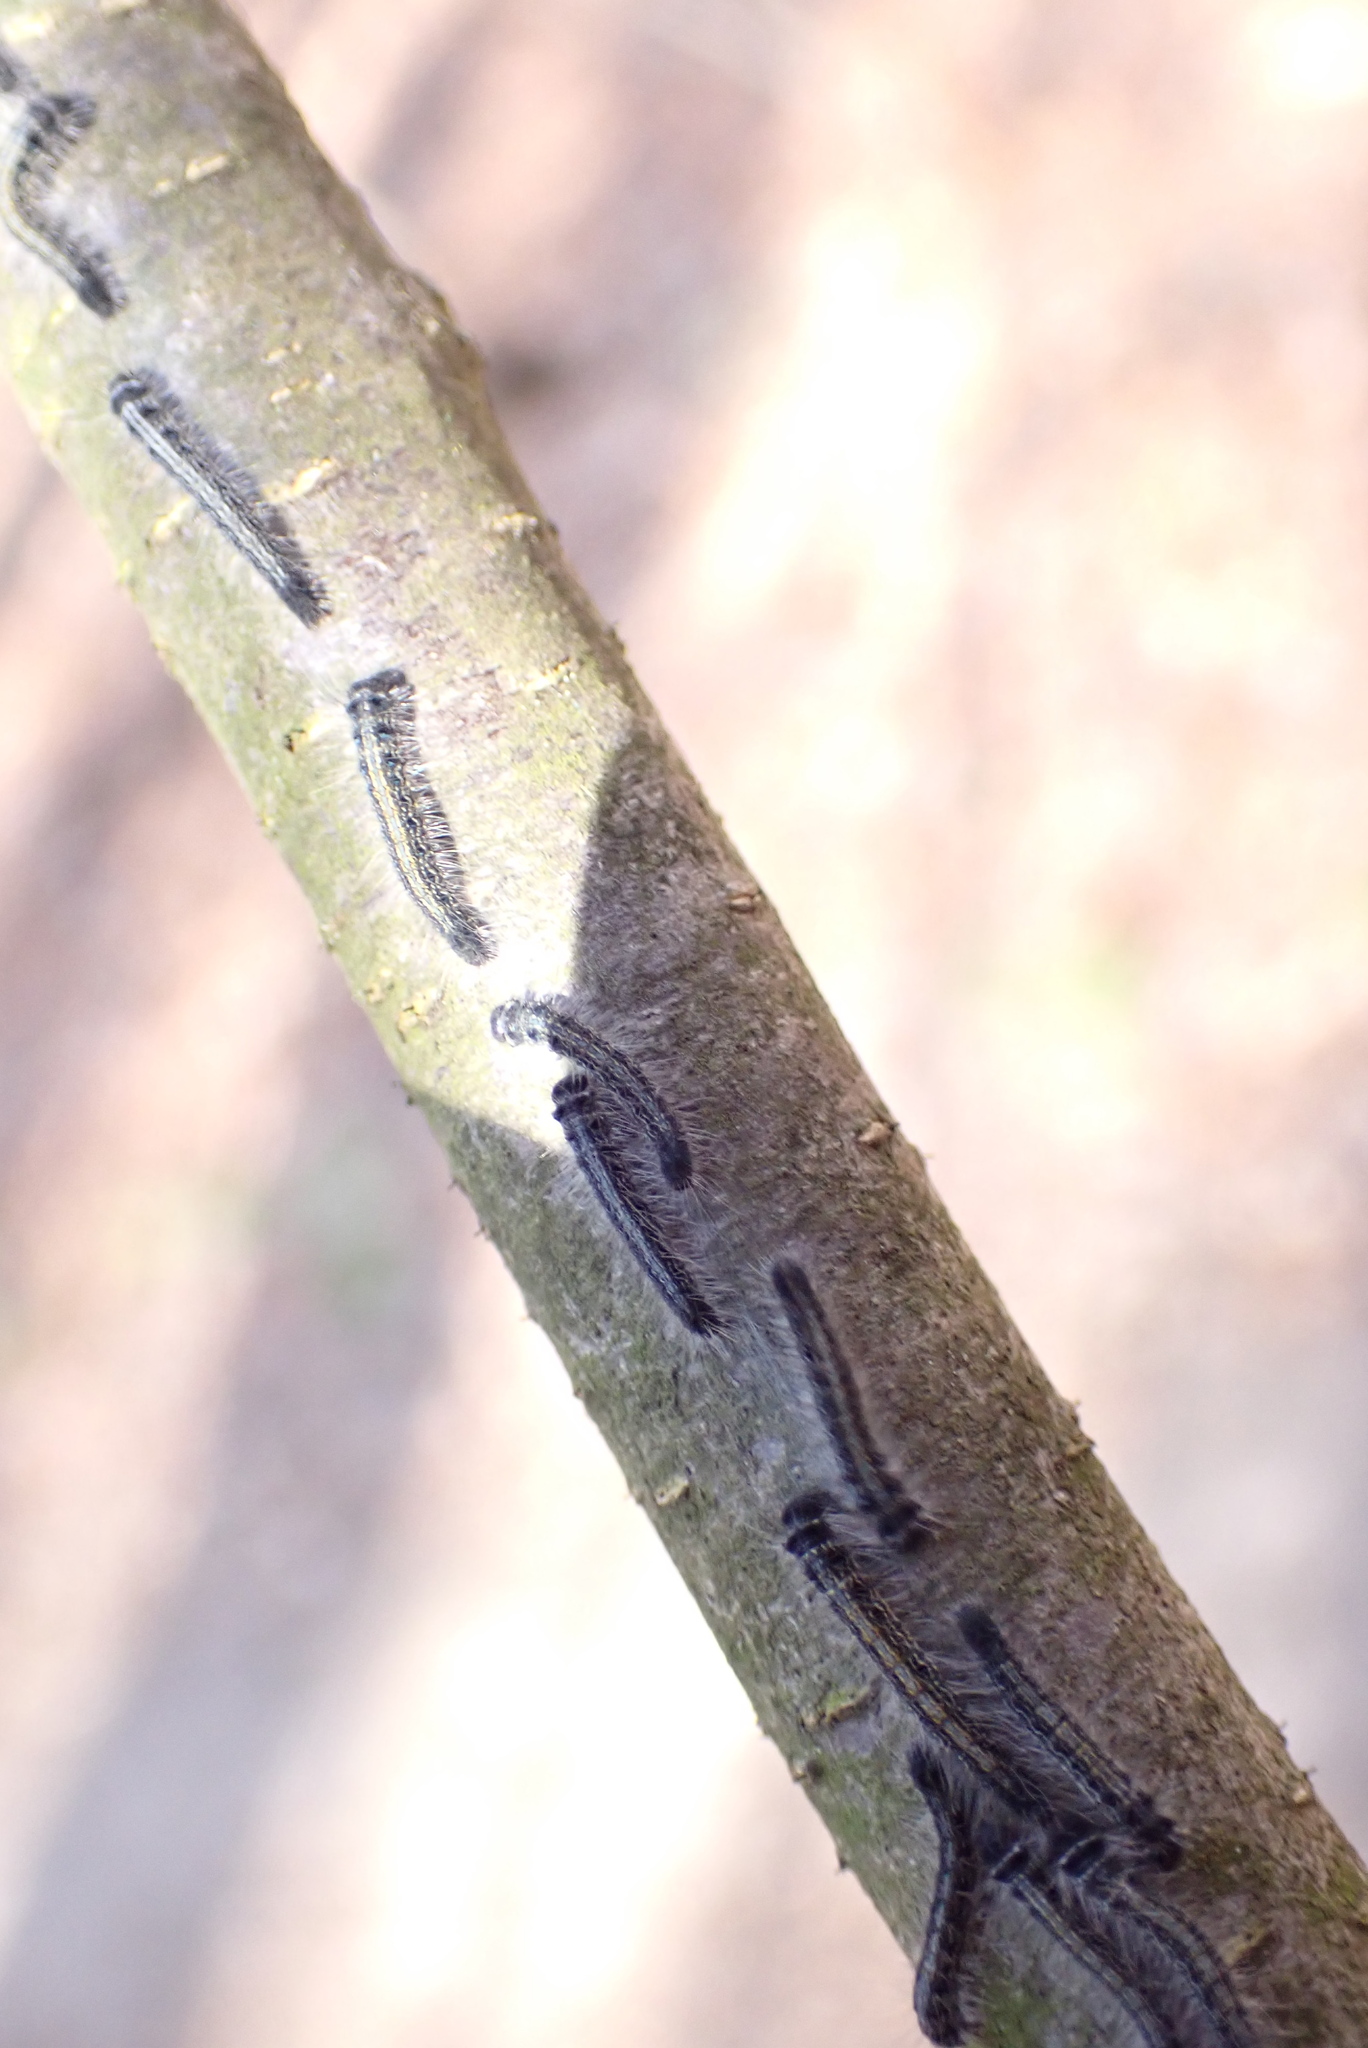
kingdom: Animalia
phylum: Arthropoda
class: Insecta
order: Lepidoptera
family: Lasiocampidae
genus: Malacosoma
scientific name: Malacosoma americana
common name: Eastern tent caterpillar moth
